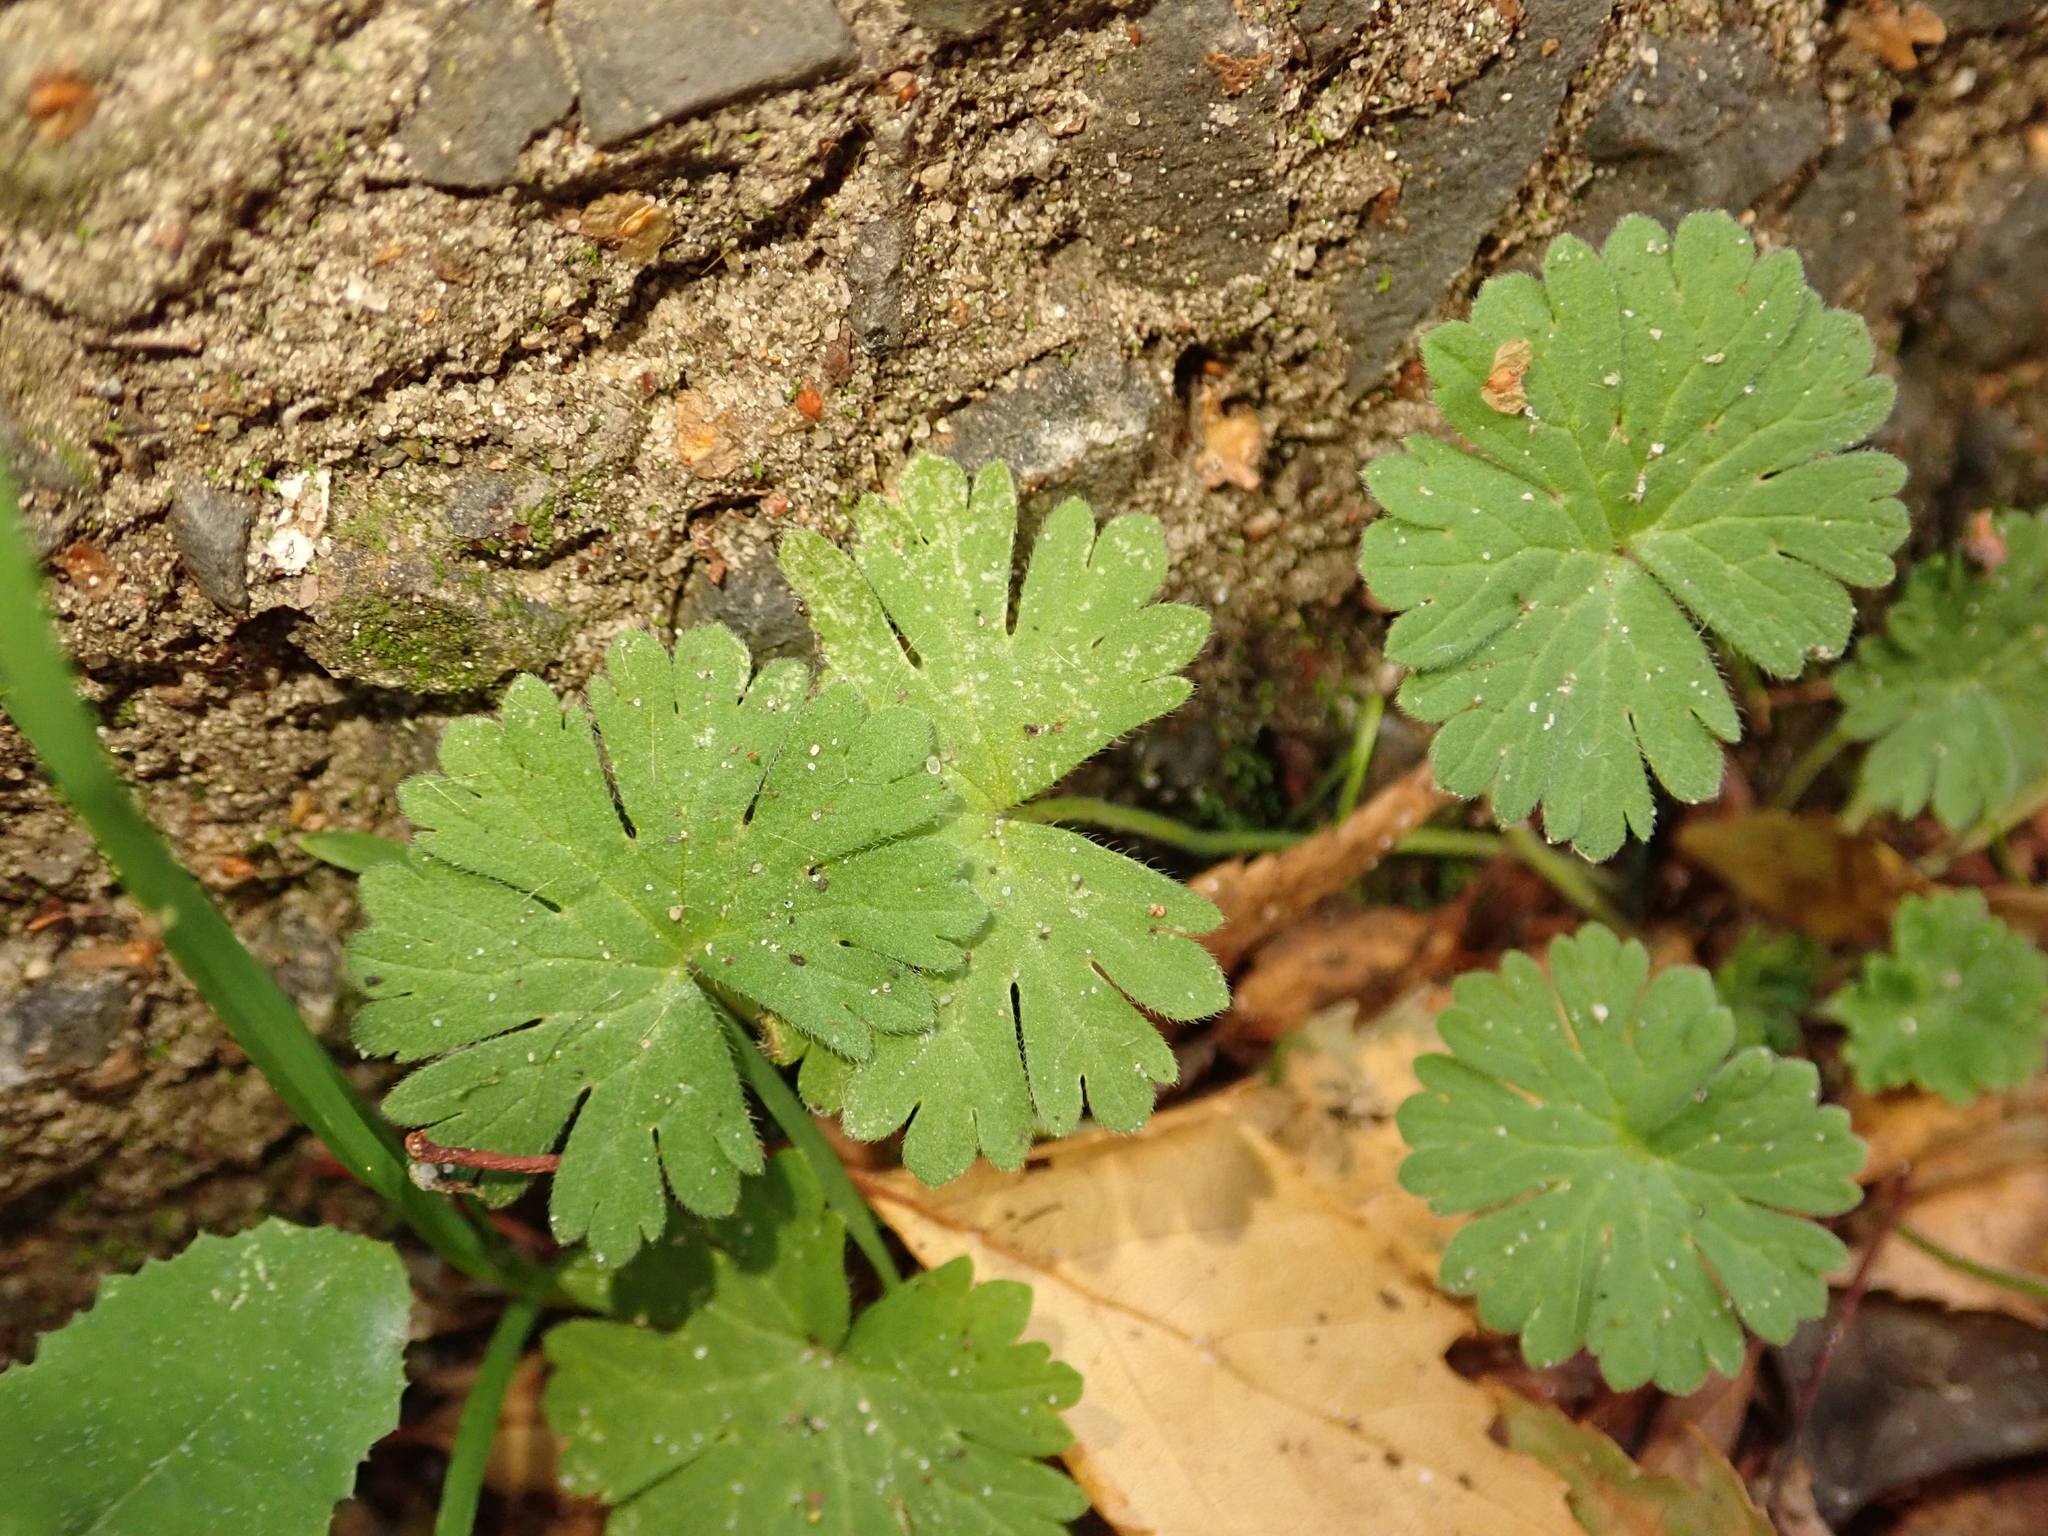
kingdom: Plantae
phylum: Tracheophyta
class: Magnoliopsida
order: Geraniales
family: Geraniaceae
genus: Geranium
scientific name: Geranium molle
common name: Dove's-foot crane's-bill
